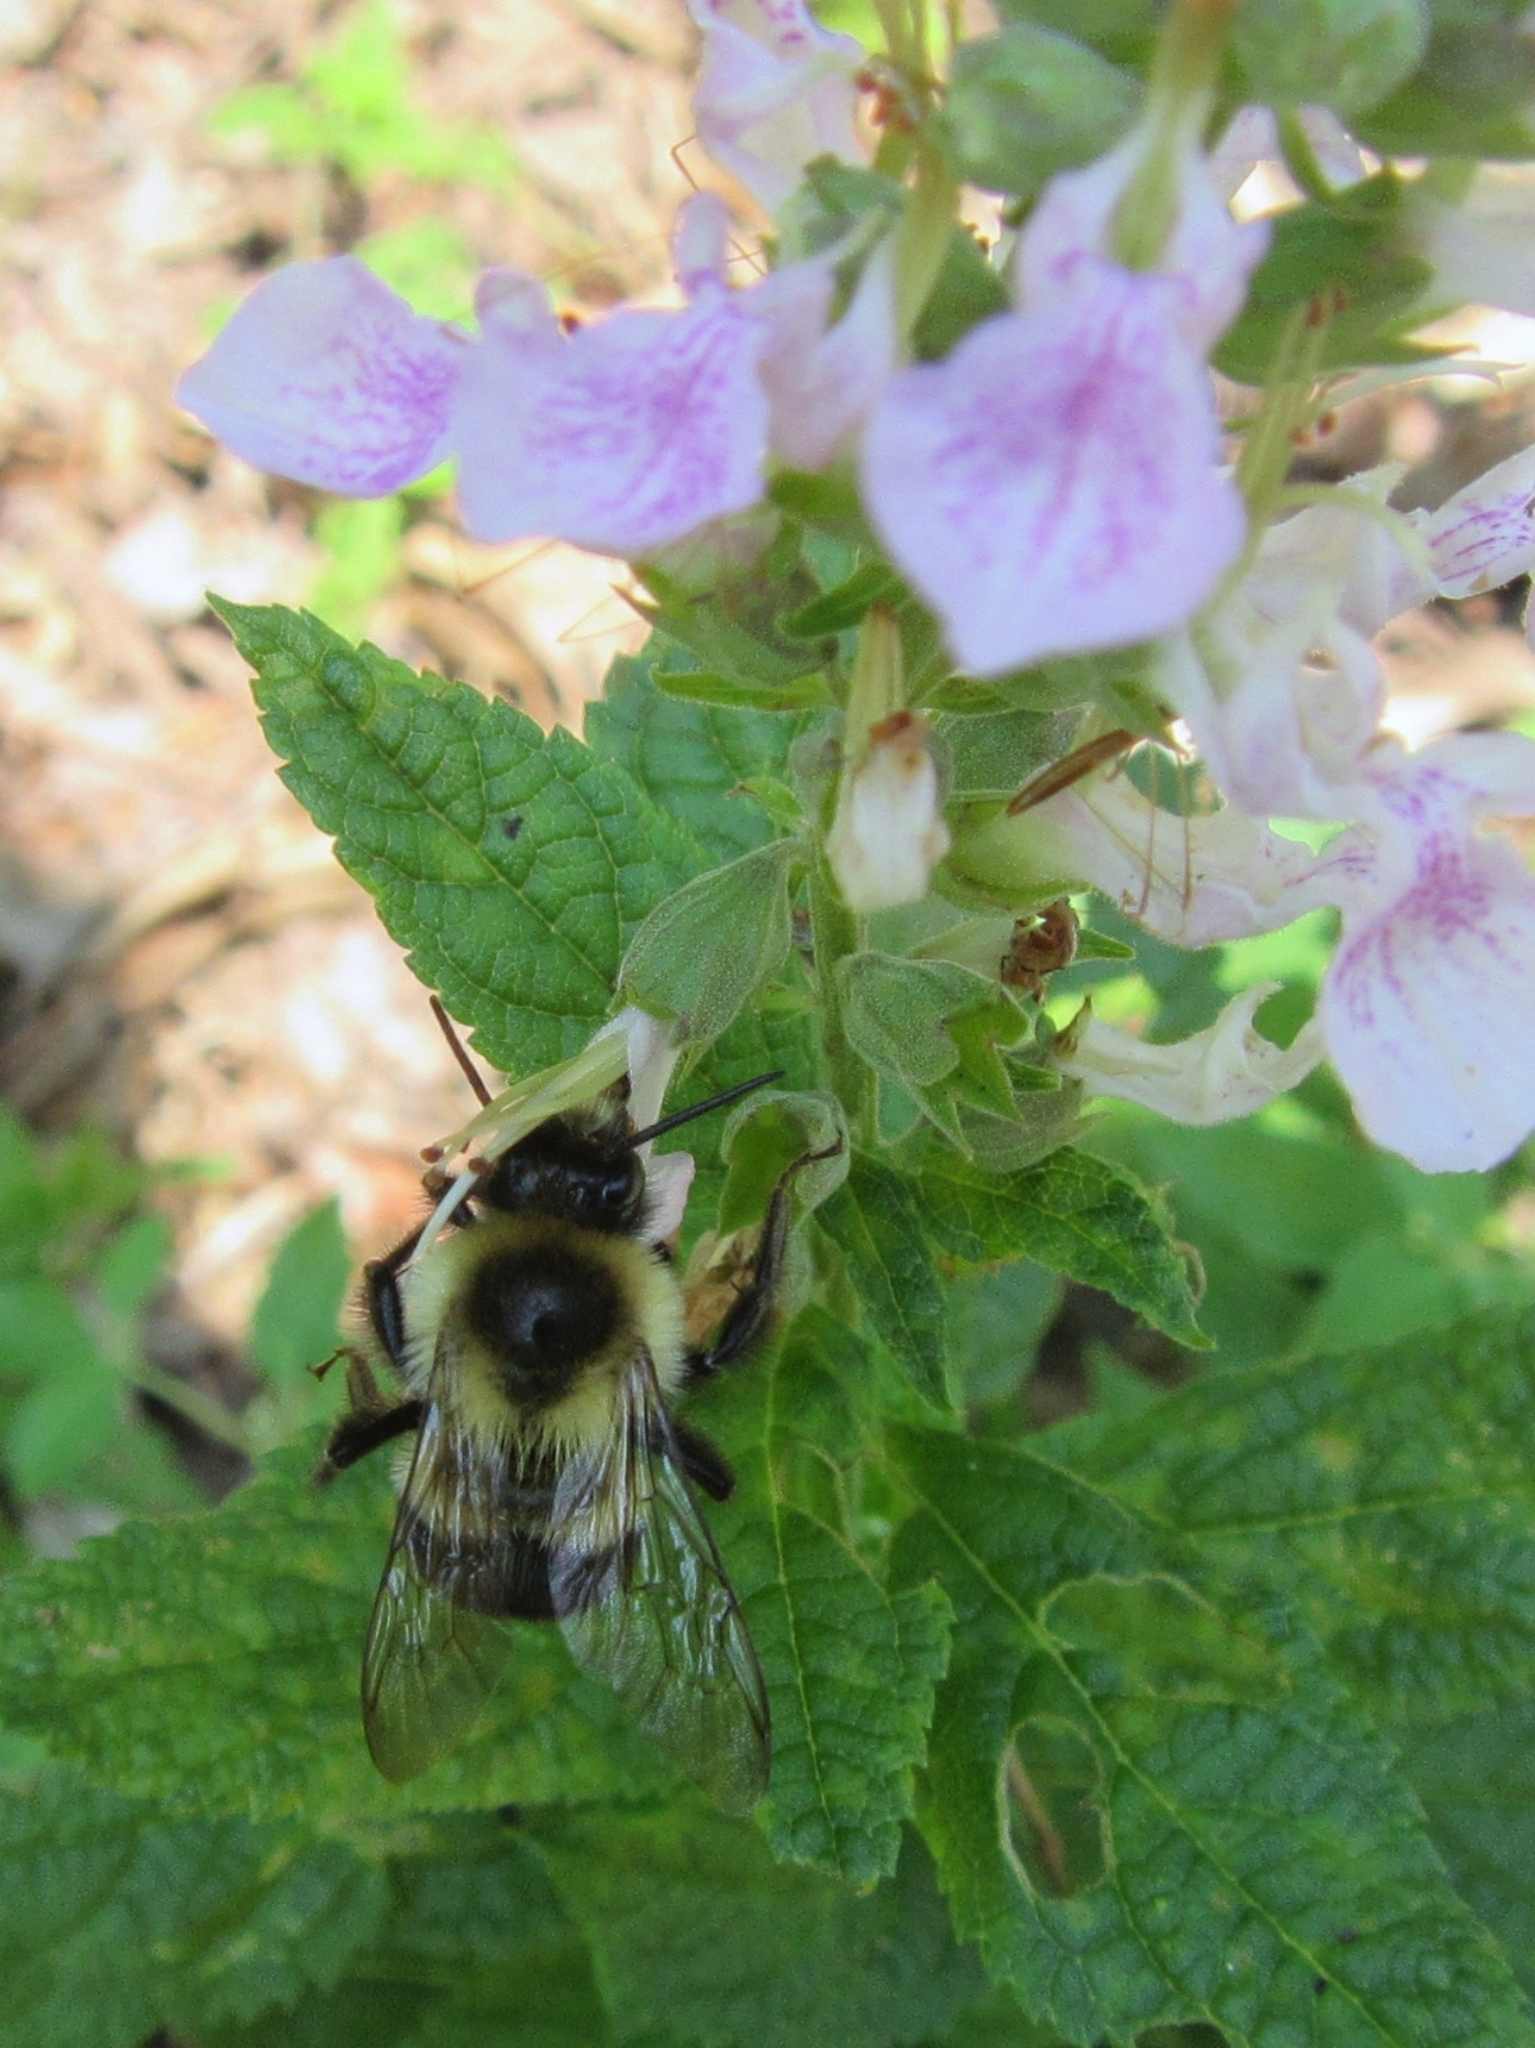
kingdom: Animalia
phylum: Arthropoda
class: Insecta
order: Hymenoptera
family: Apidae
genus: Bombus
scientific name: Bombus impatiens
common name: Common eastern bumble bee
